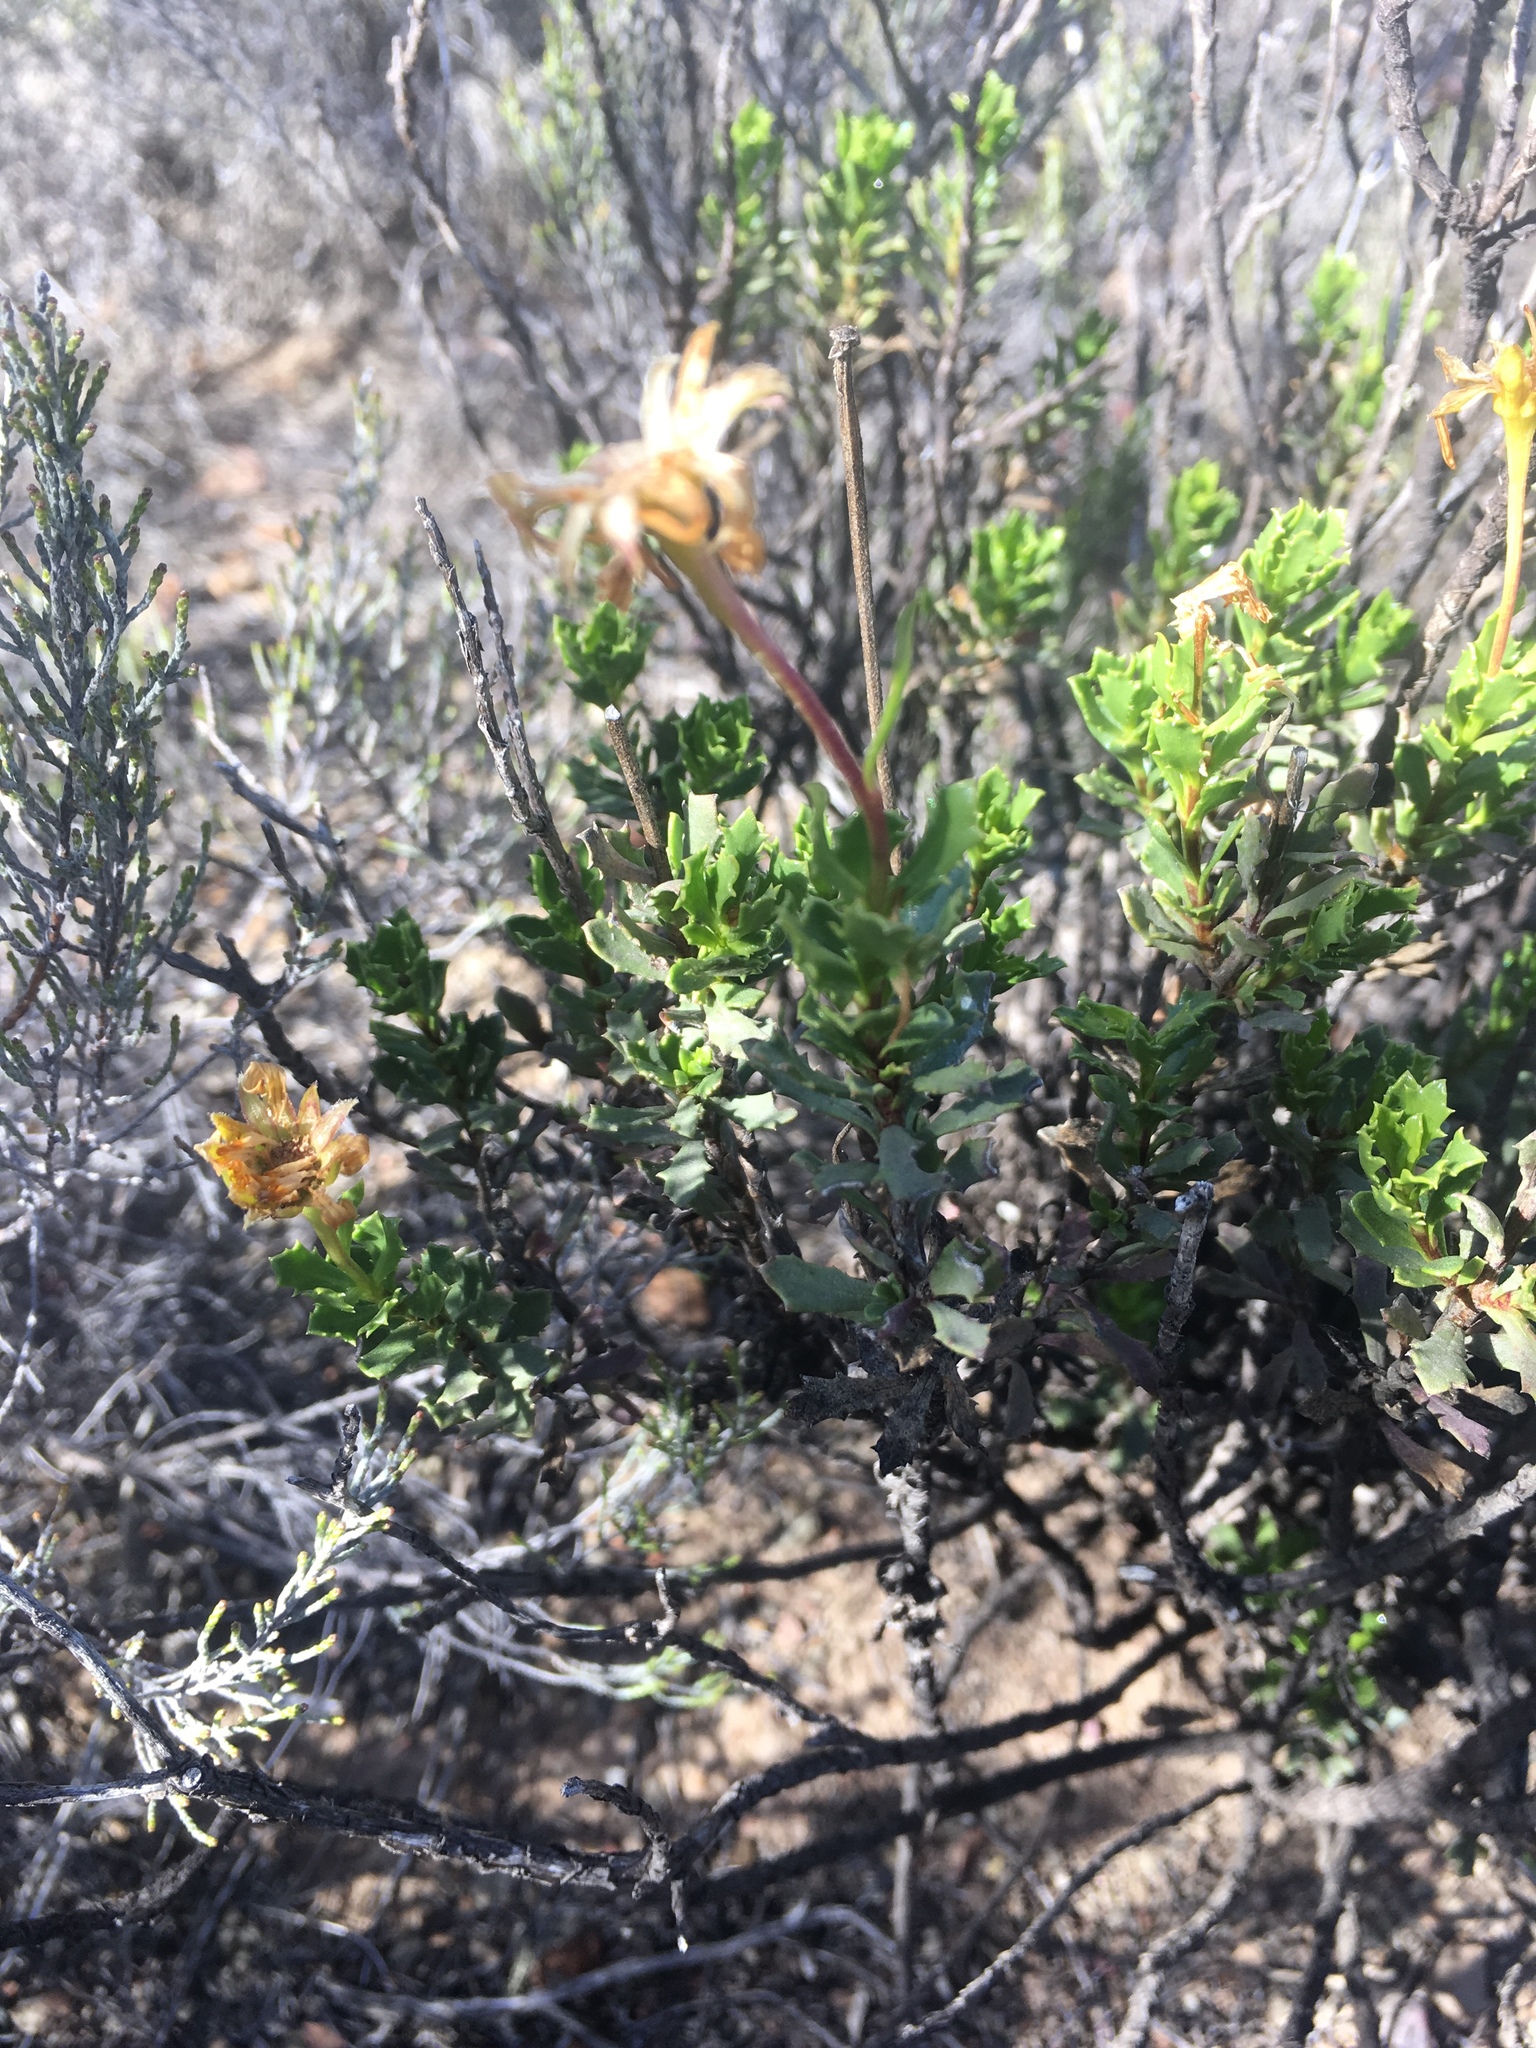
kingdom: Plantae
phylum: Tracheophyta
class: Magnoliopsida
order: Asterales
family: Asteraceae
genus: Dimorphotheca
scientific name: Dimorphotheca cuneata
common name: Daisy
